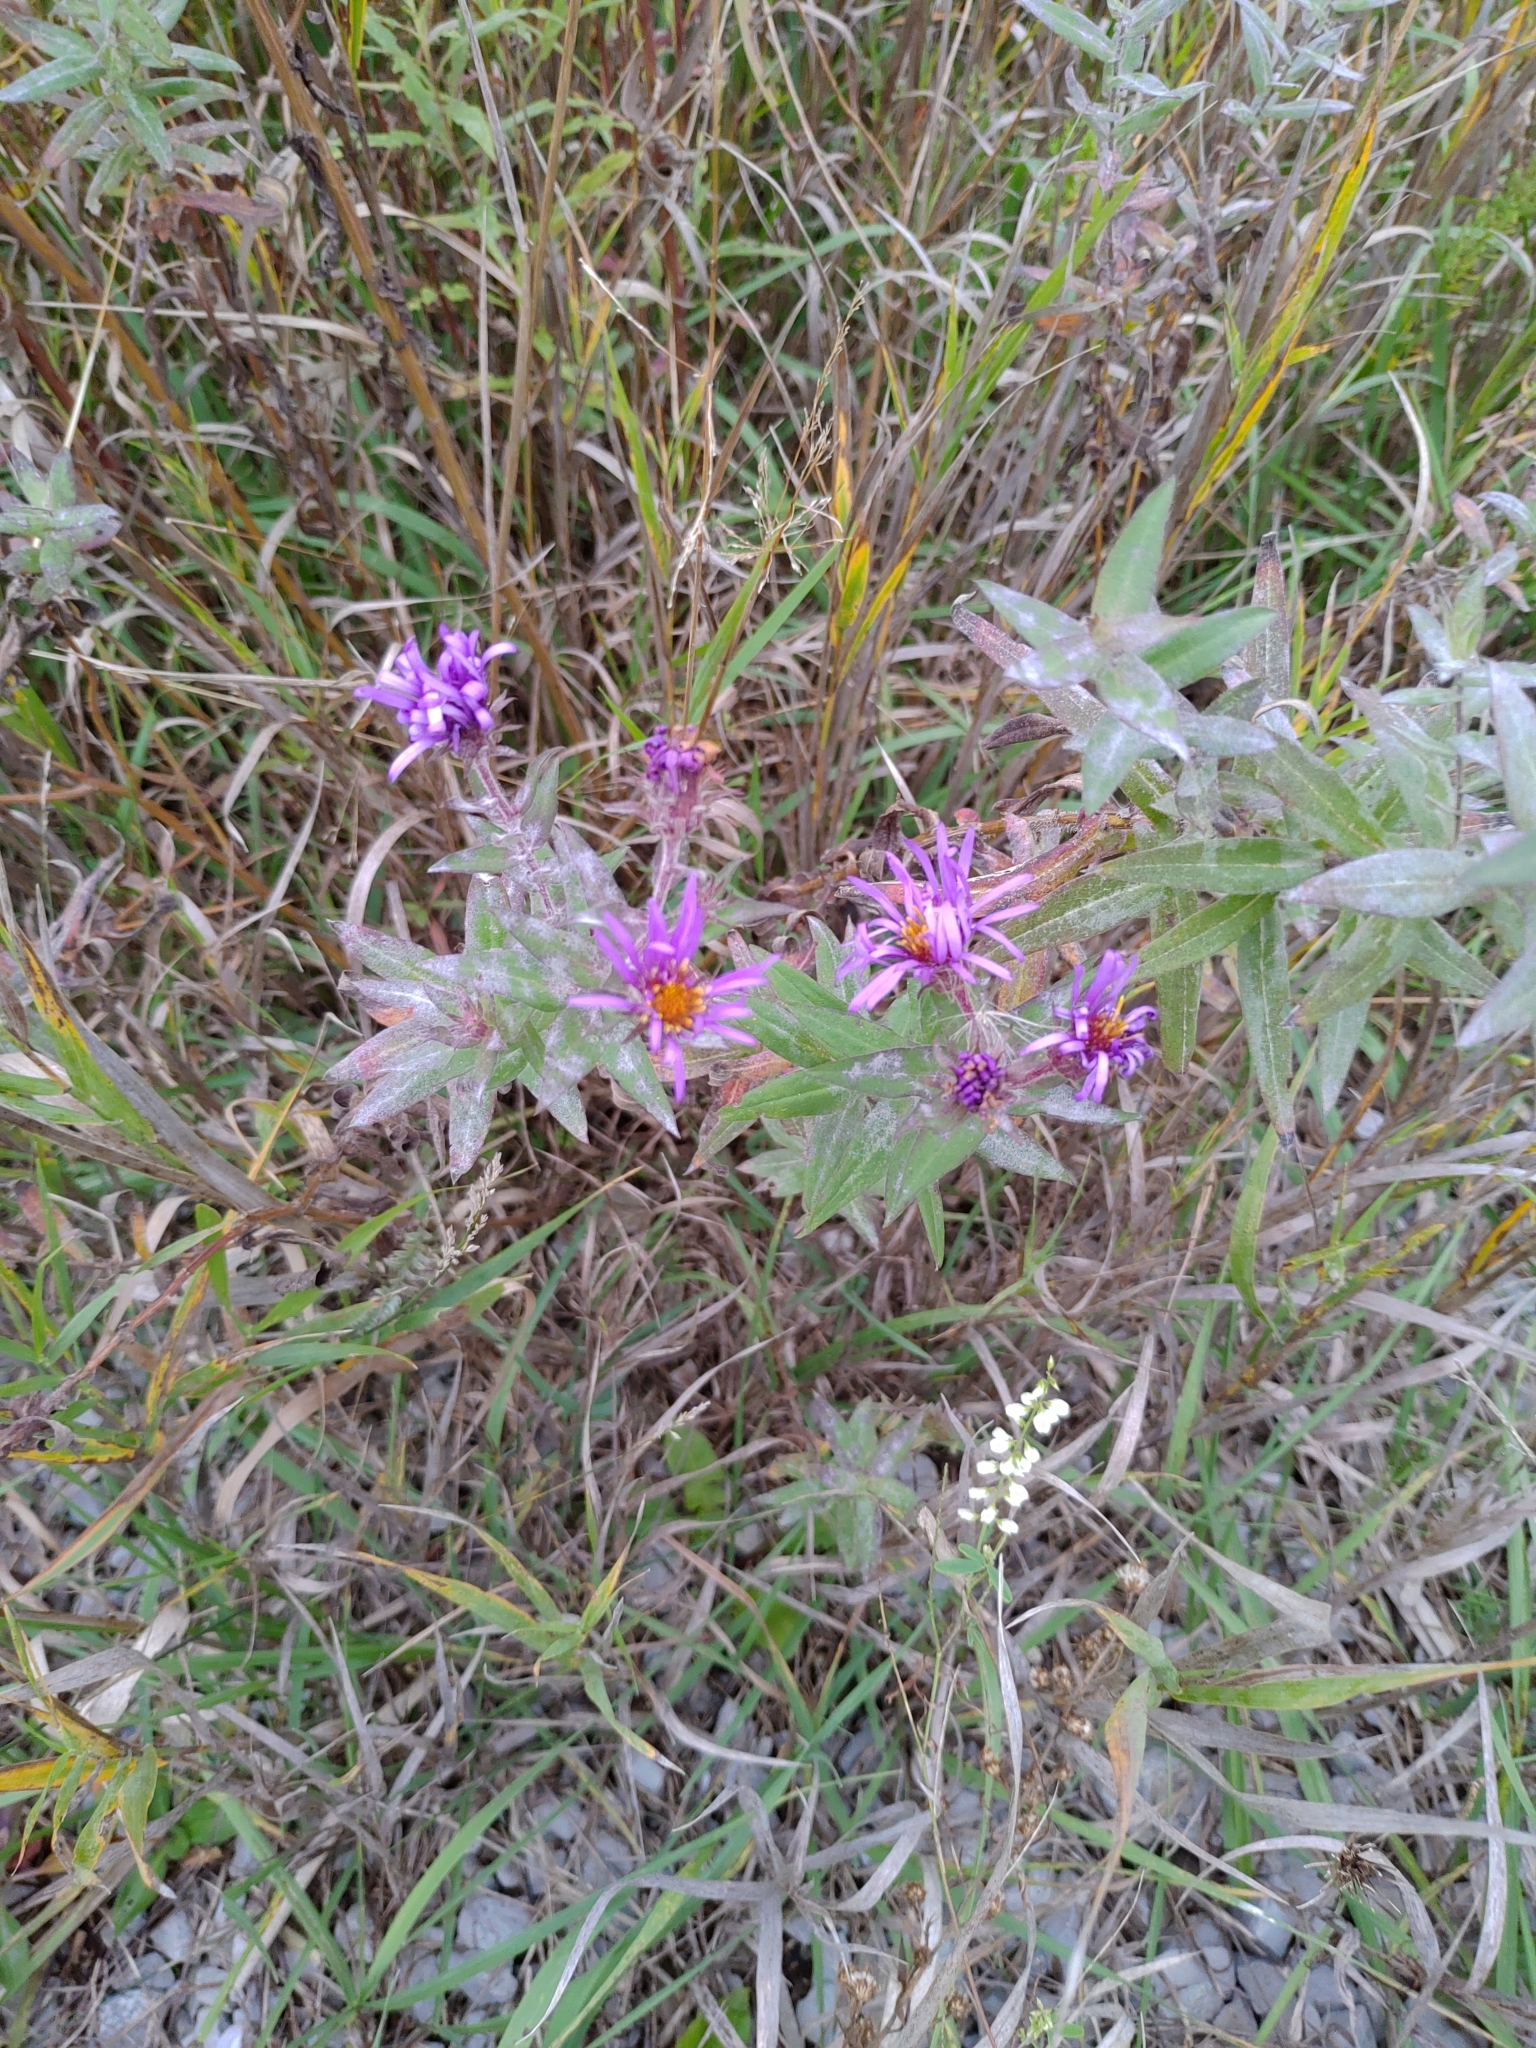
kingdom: Plantae
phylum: Tracheophyta
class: Magnoliopsida
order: Asterales
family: Asteraceae
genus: Symphyotrichum
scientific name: Symphyotrichum novae-angliae
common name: Michaelmas daisy
